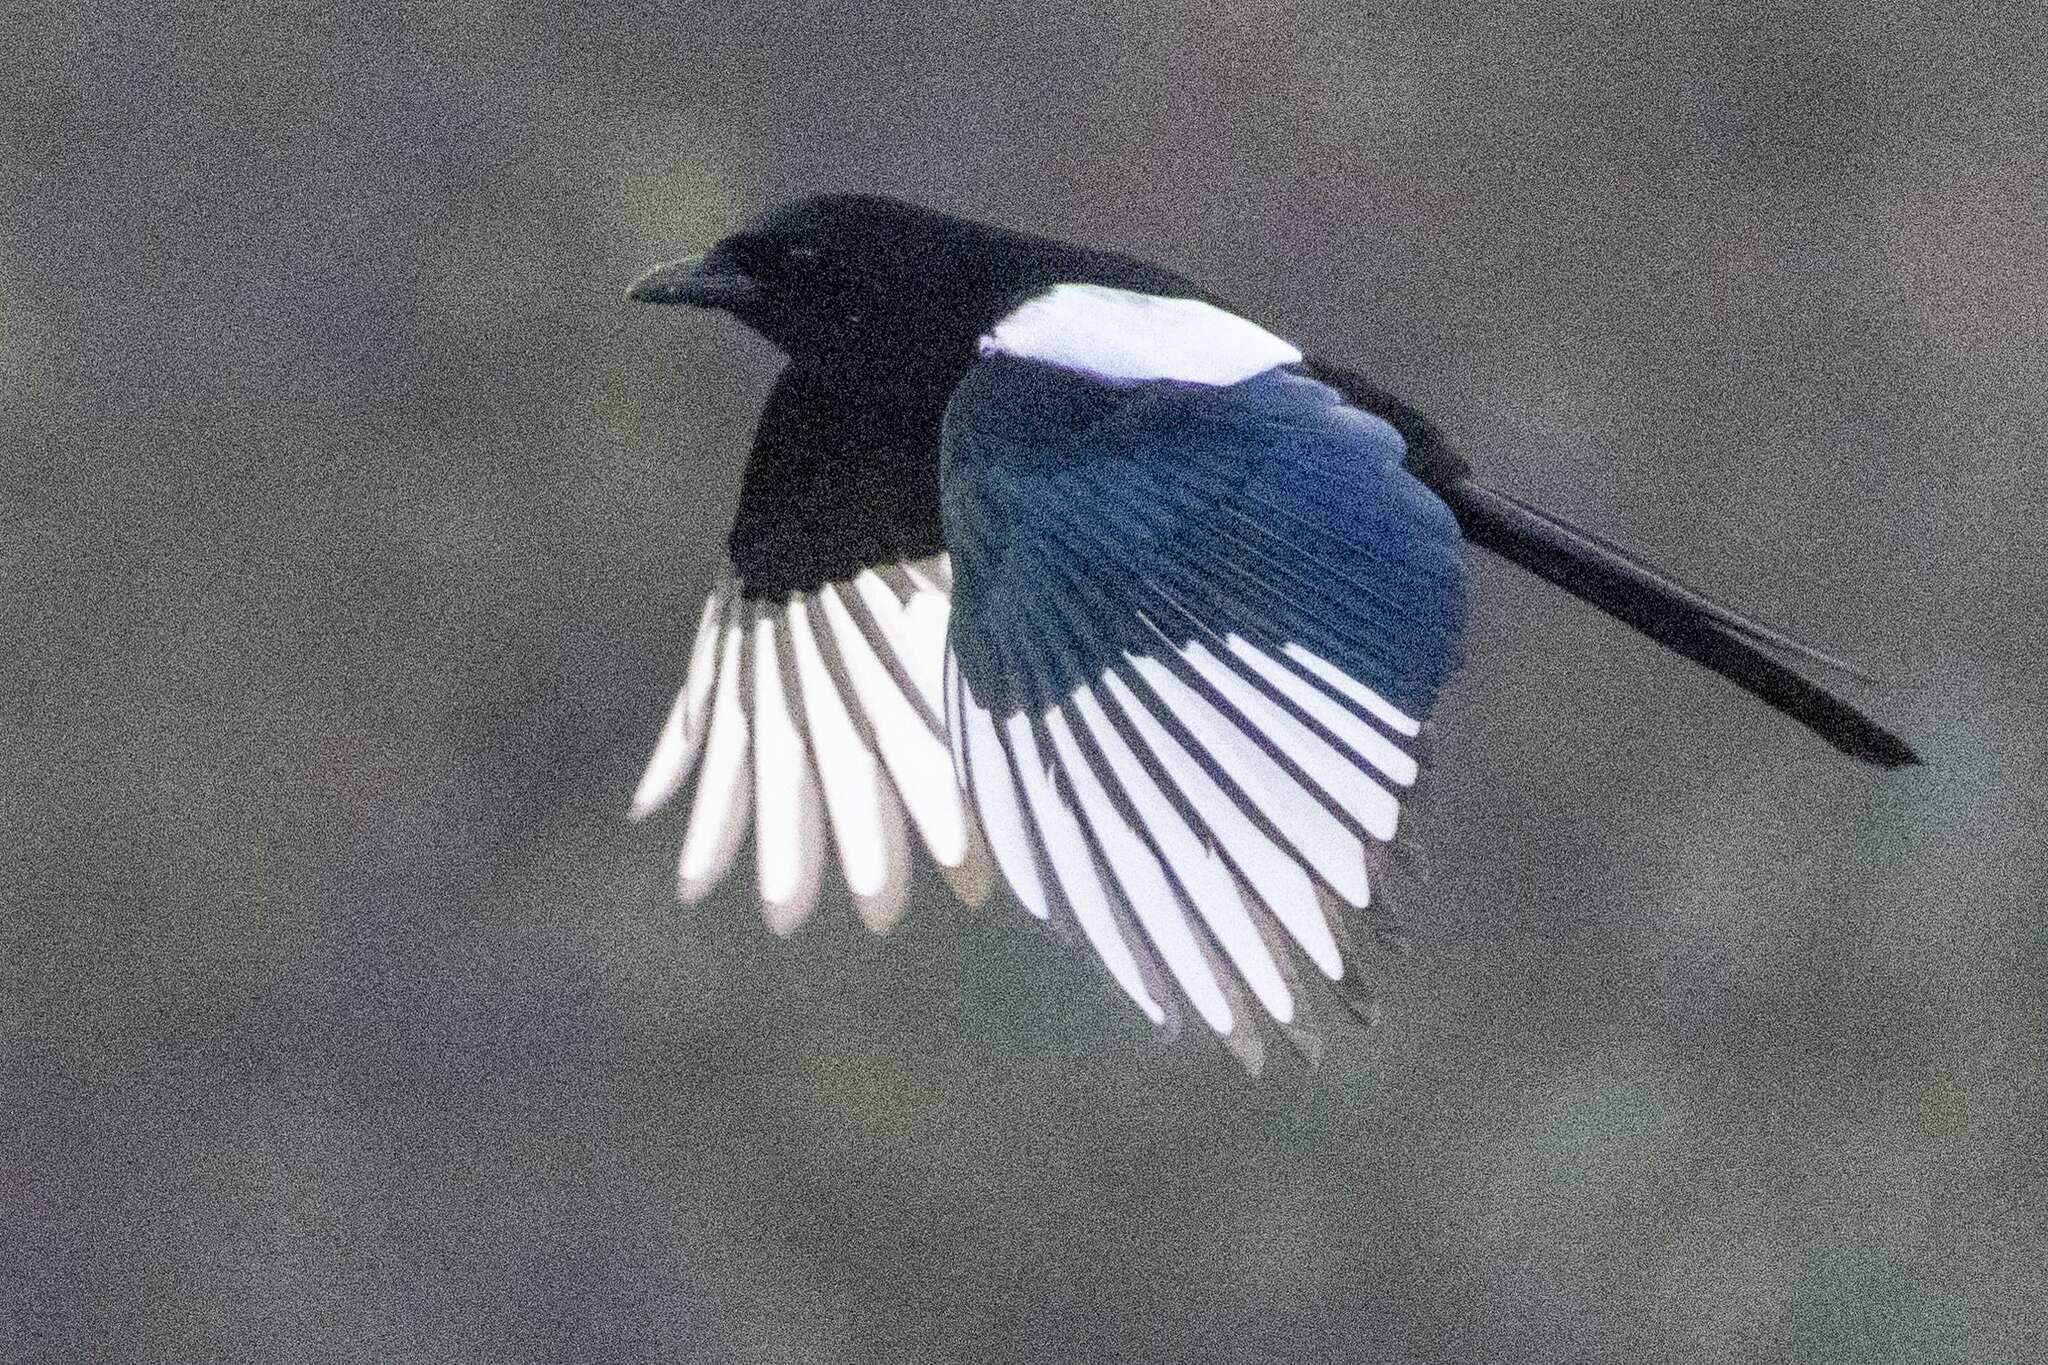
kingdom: Animalia
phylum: Chordata
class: Aves
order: Passeriformes
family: Corvidae
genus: Pica
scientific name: Pica pica
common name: Eurasian magpie
